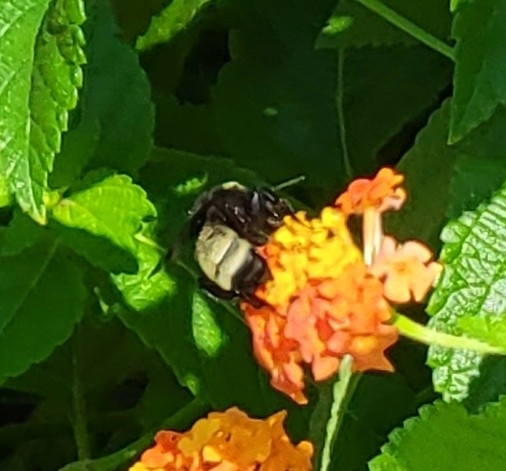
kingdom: Animalia
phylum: Arthropoda
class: Insecta
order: Hymenoptera
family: Apidae
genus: Bombus
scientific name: Bombus pensylvanicus
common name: Bumble bee
